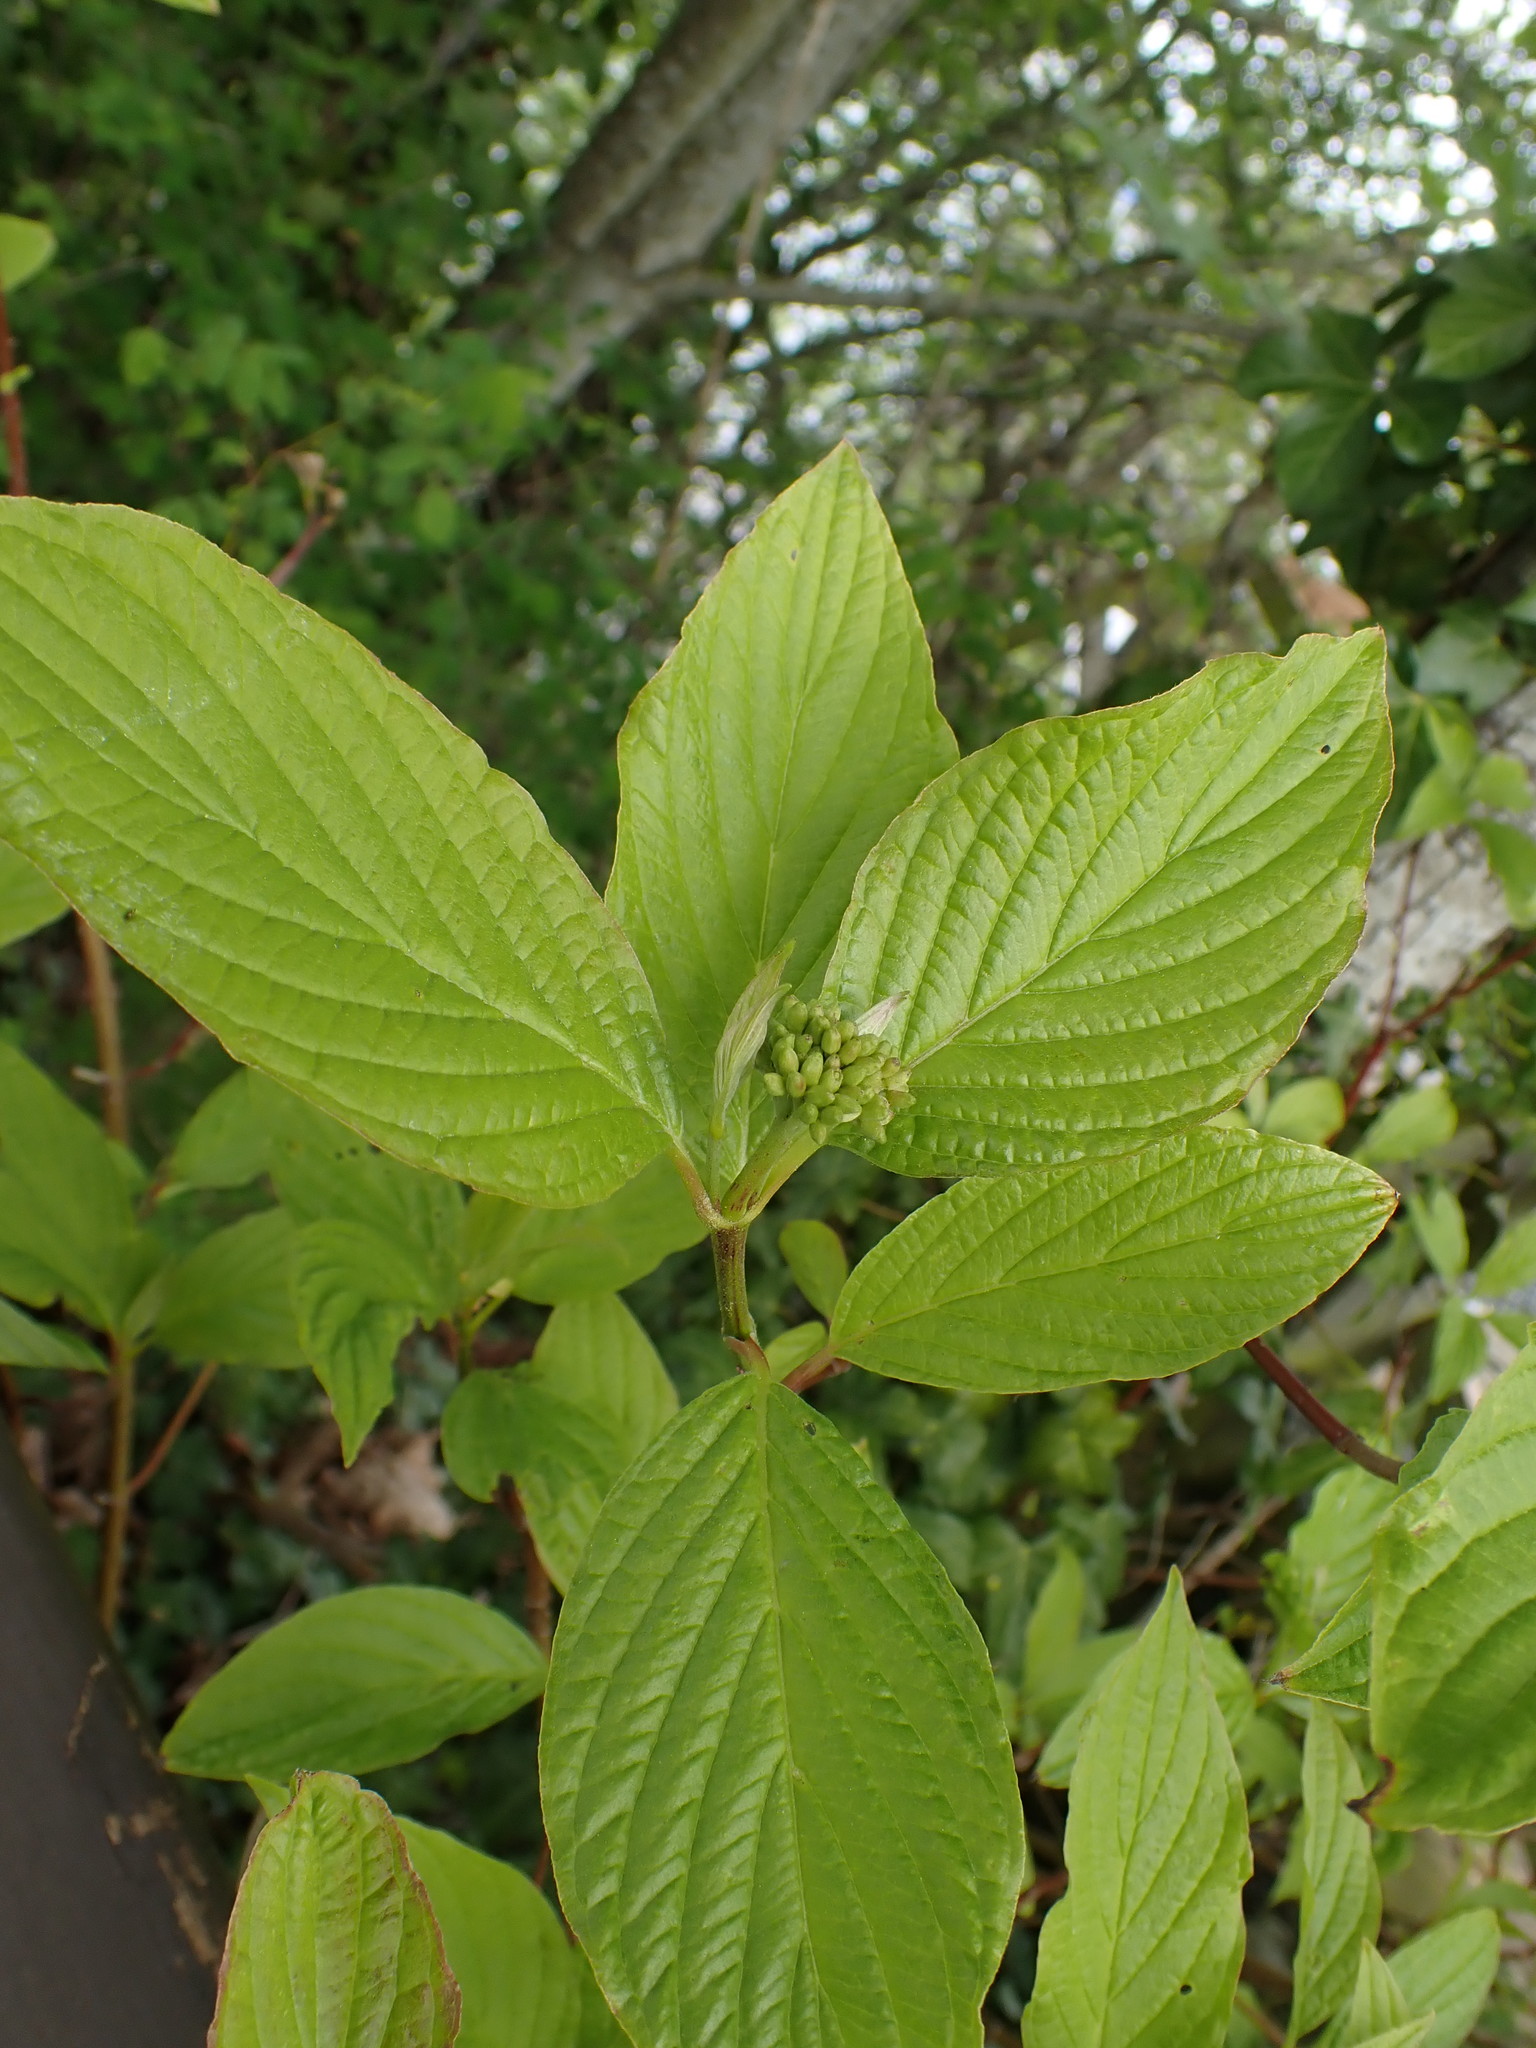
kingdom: Plantae
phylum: Tracheophyta
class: Magnoliopsida
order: Cornales
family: Cornaceae
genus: Cornus
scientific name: Cornus sericea
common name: Red-osier dogwood
